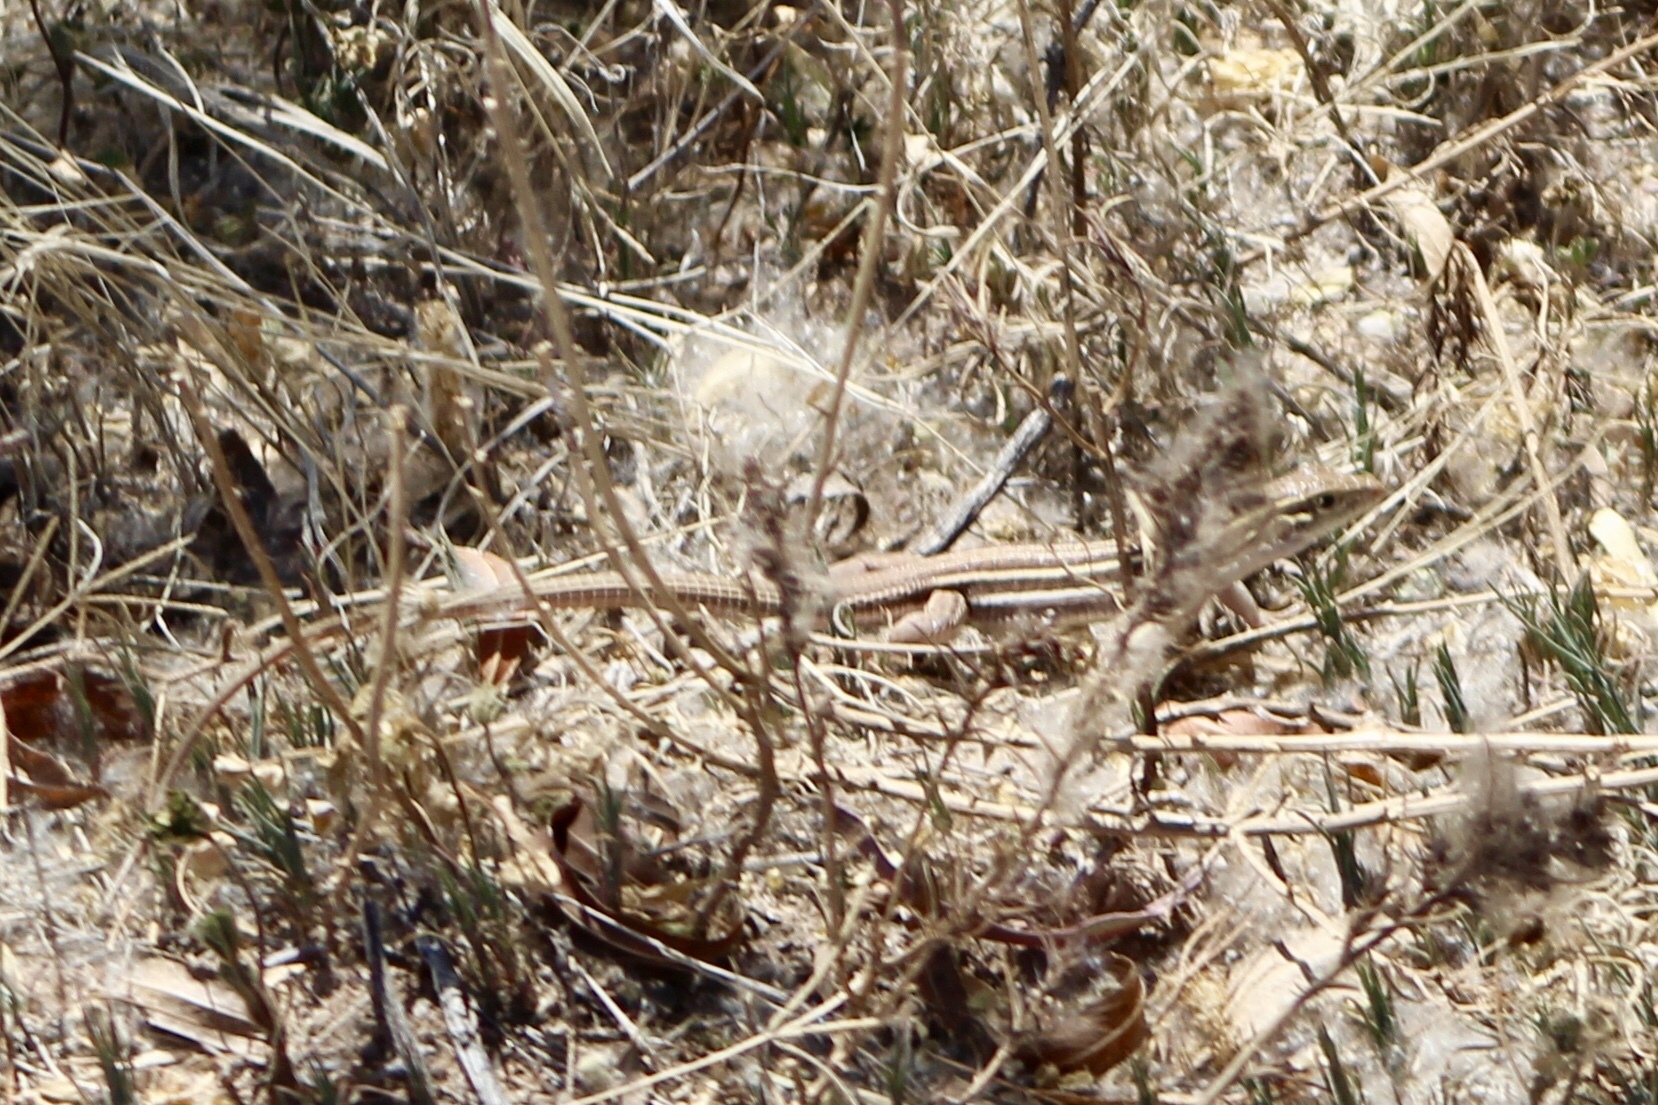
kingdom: Animalia
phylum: Chordata
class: Squamata
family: Teiidae
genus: Aspidoscelis
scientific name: Aspidoscelis sonorae
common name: Sonoran spotted whiptail
